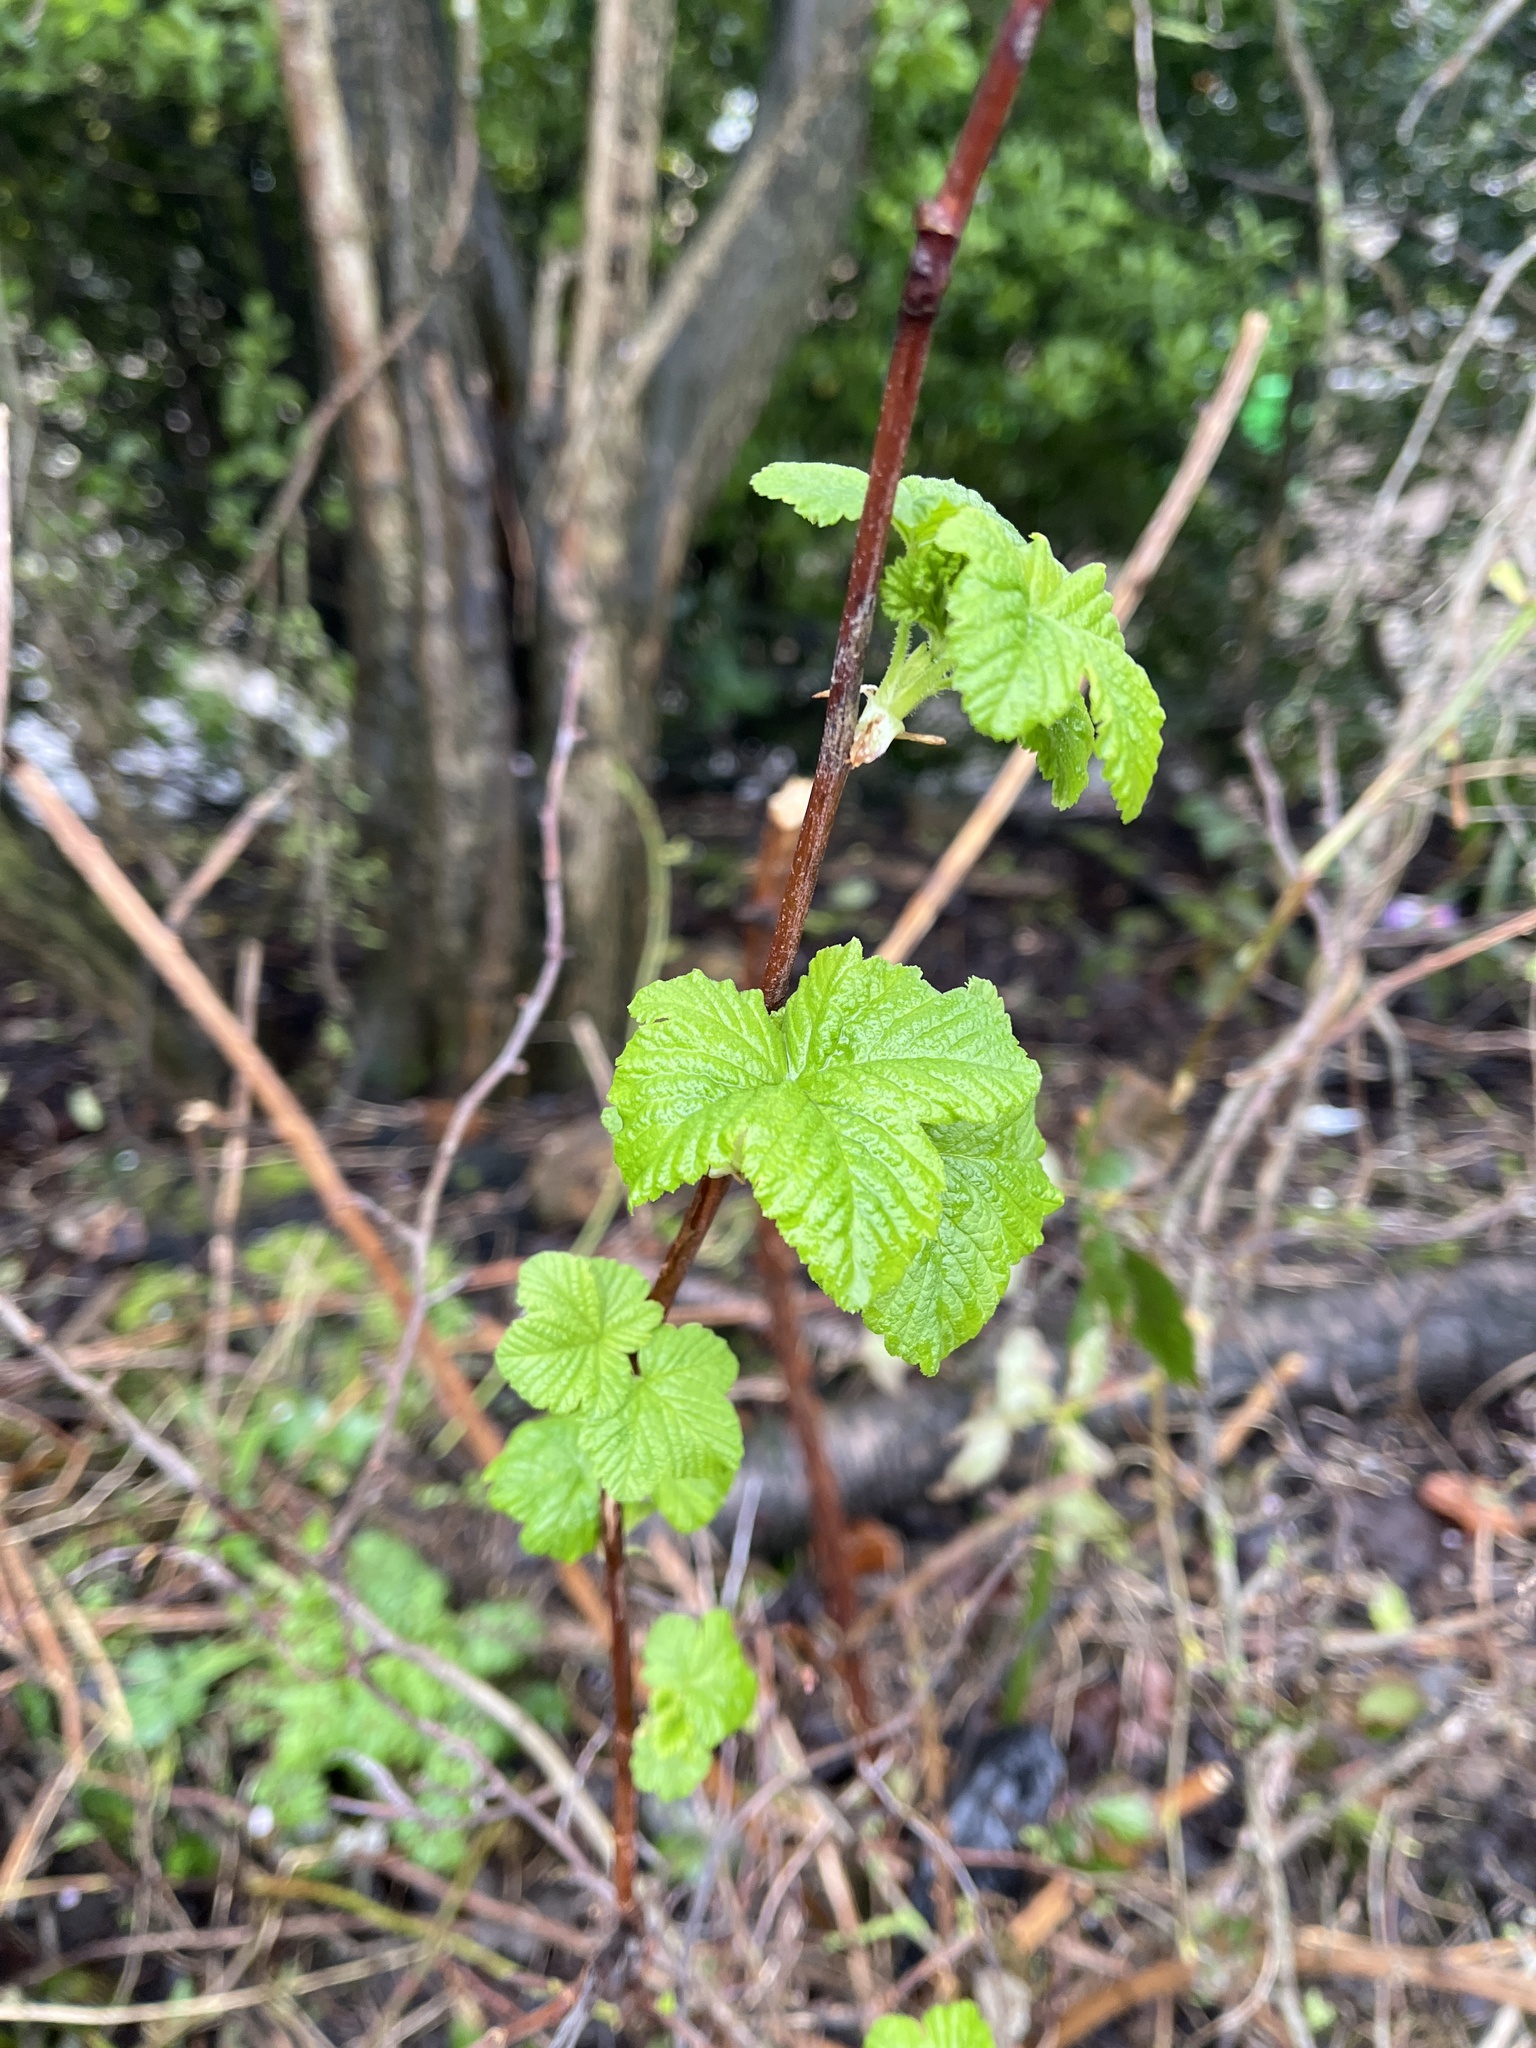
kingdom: Plantae
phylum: Tracheophyta
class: Magnoliopsida
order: Saxifragales
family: Grossulariaceae
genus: Ribes
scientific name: Ribes sanguineum
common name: Flowering currant
